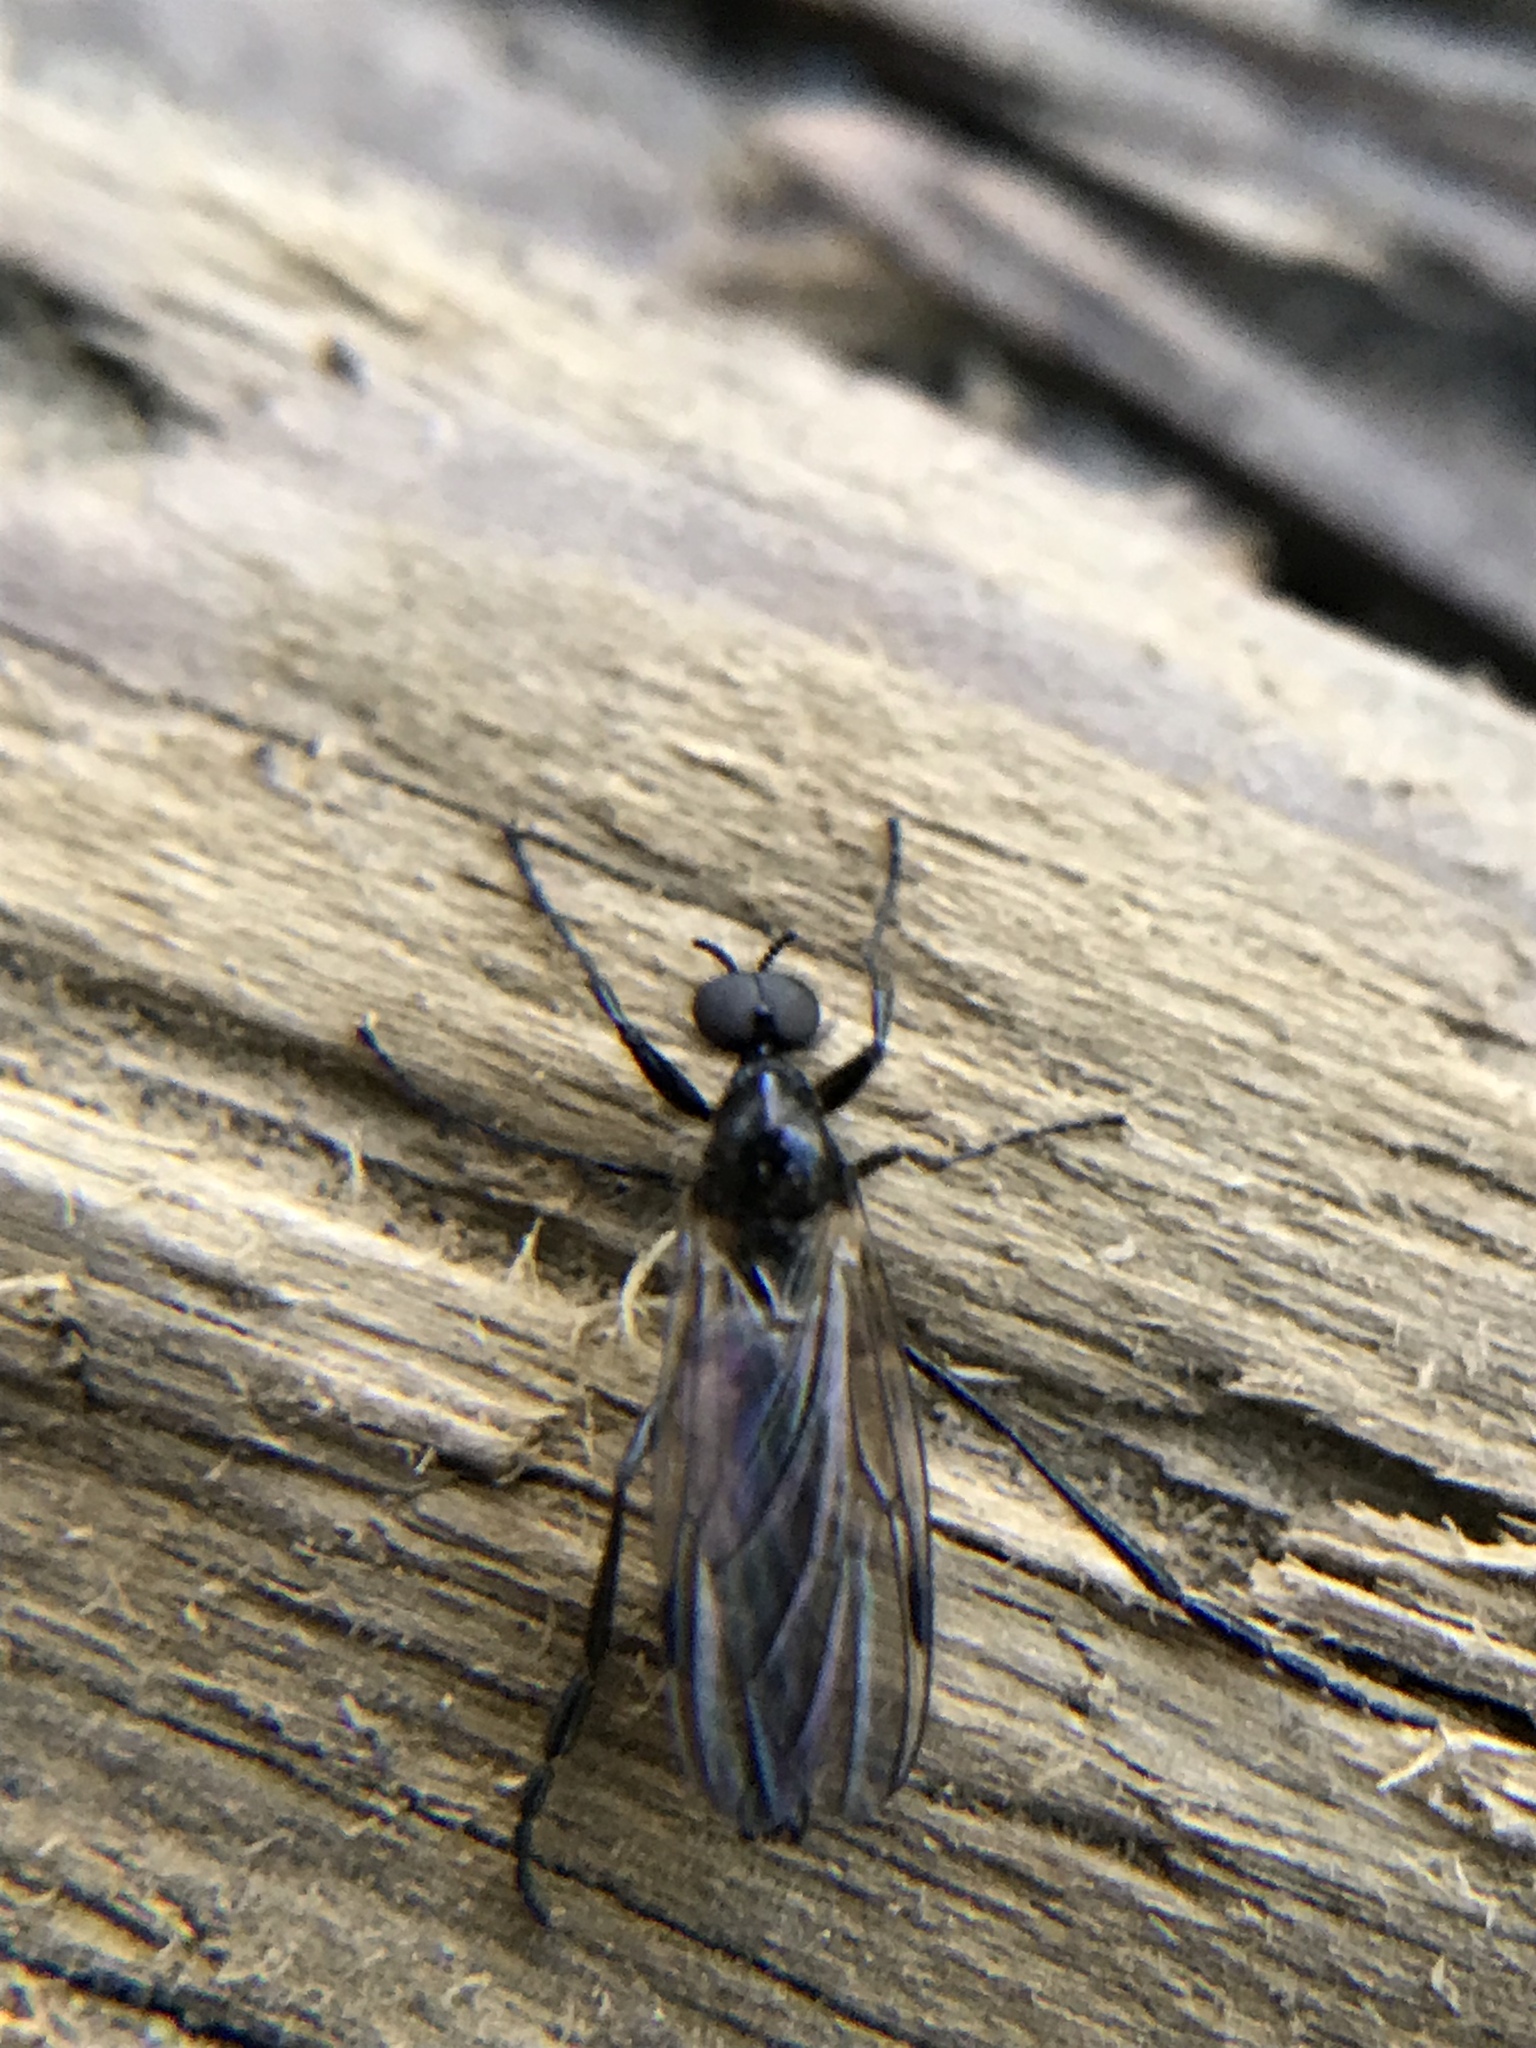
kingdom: Animalia
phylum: Arthropoda
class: Insecta
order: Diptera
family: Bibionidae
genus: Bibio
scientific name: Bibio slossonae
